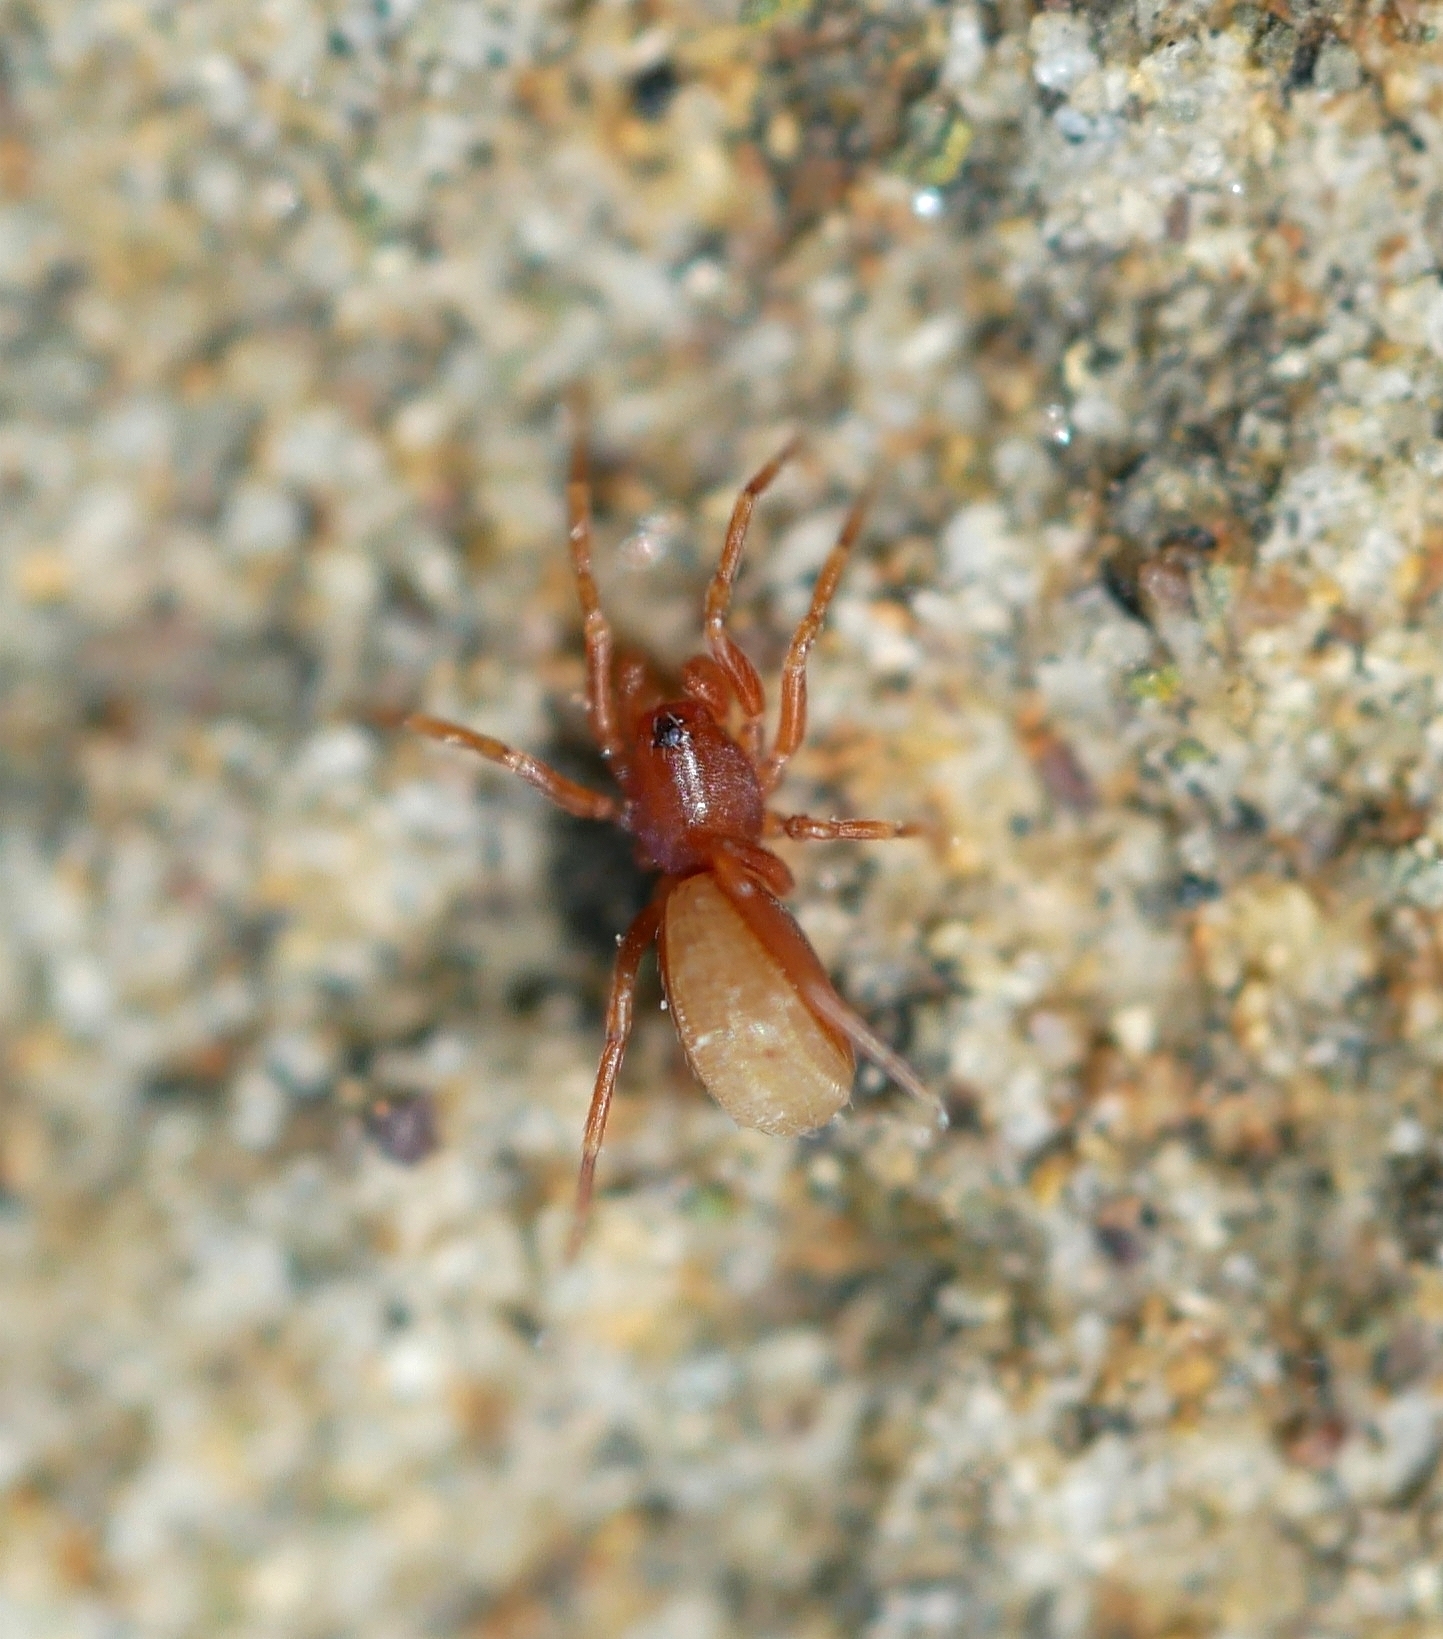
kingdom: Animalia
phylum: Arthropoda
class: Arachnida
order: Araneae
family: Oonopidae
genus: Escaphiella
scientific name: Escaphiella hespera
